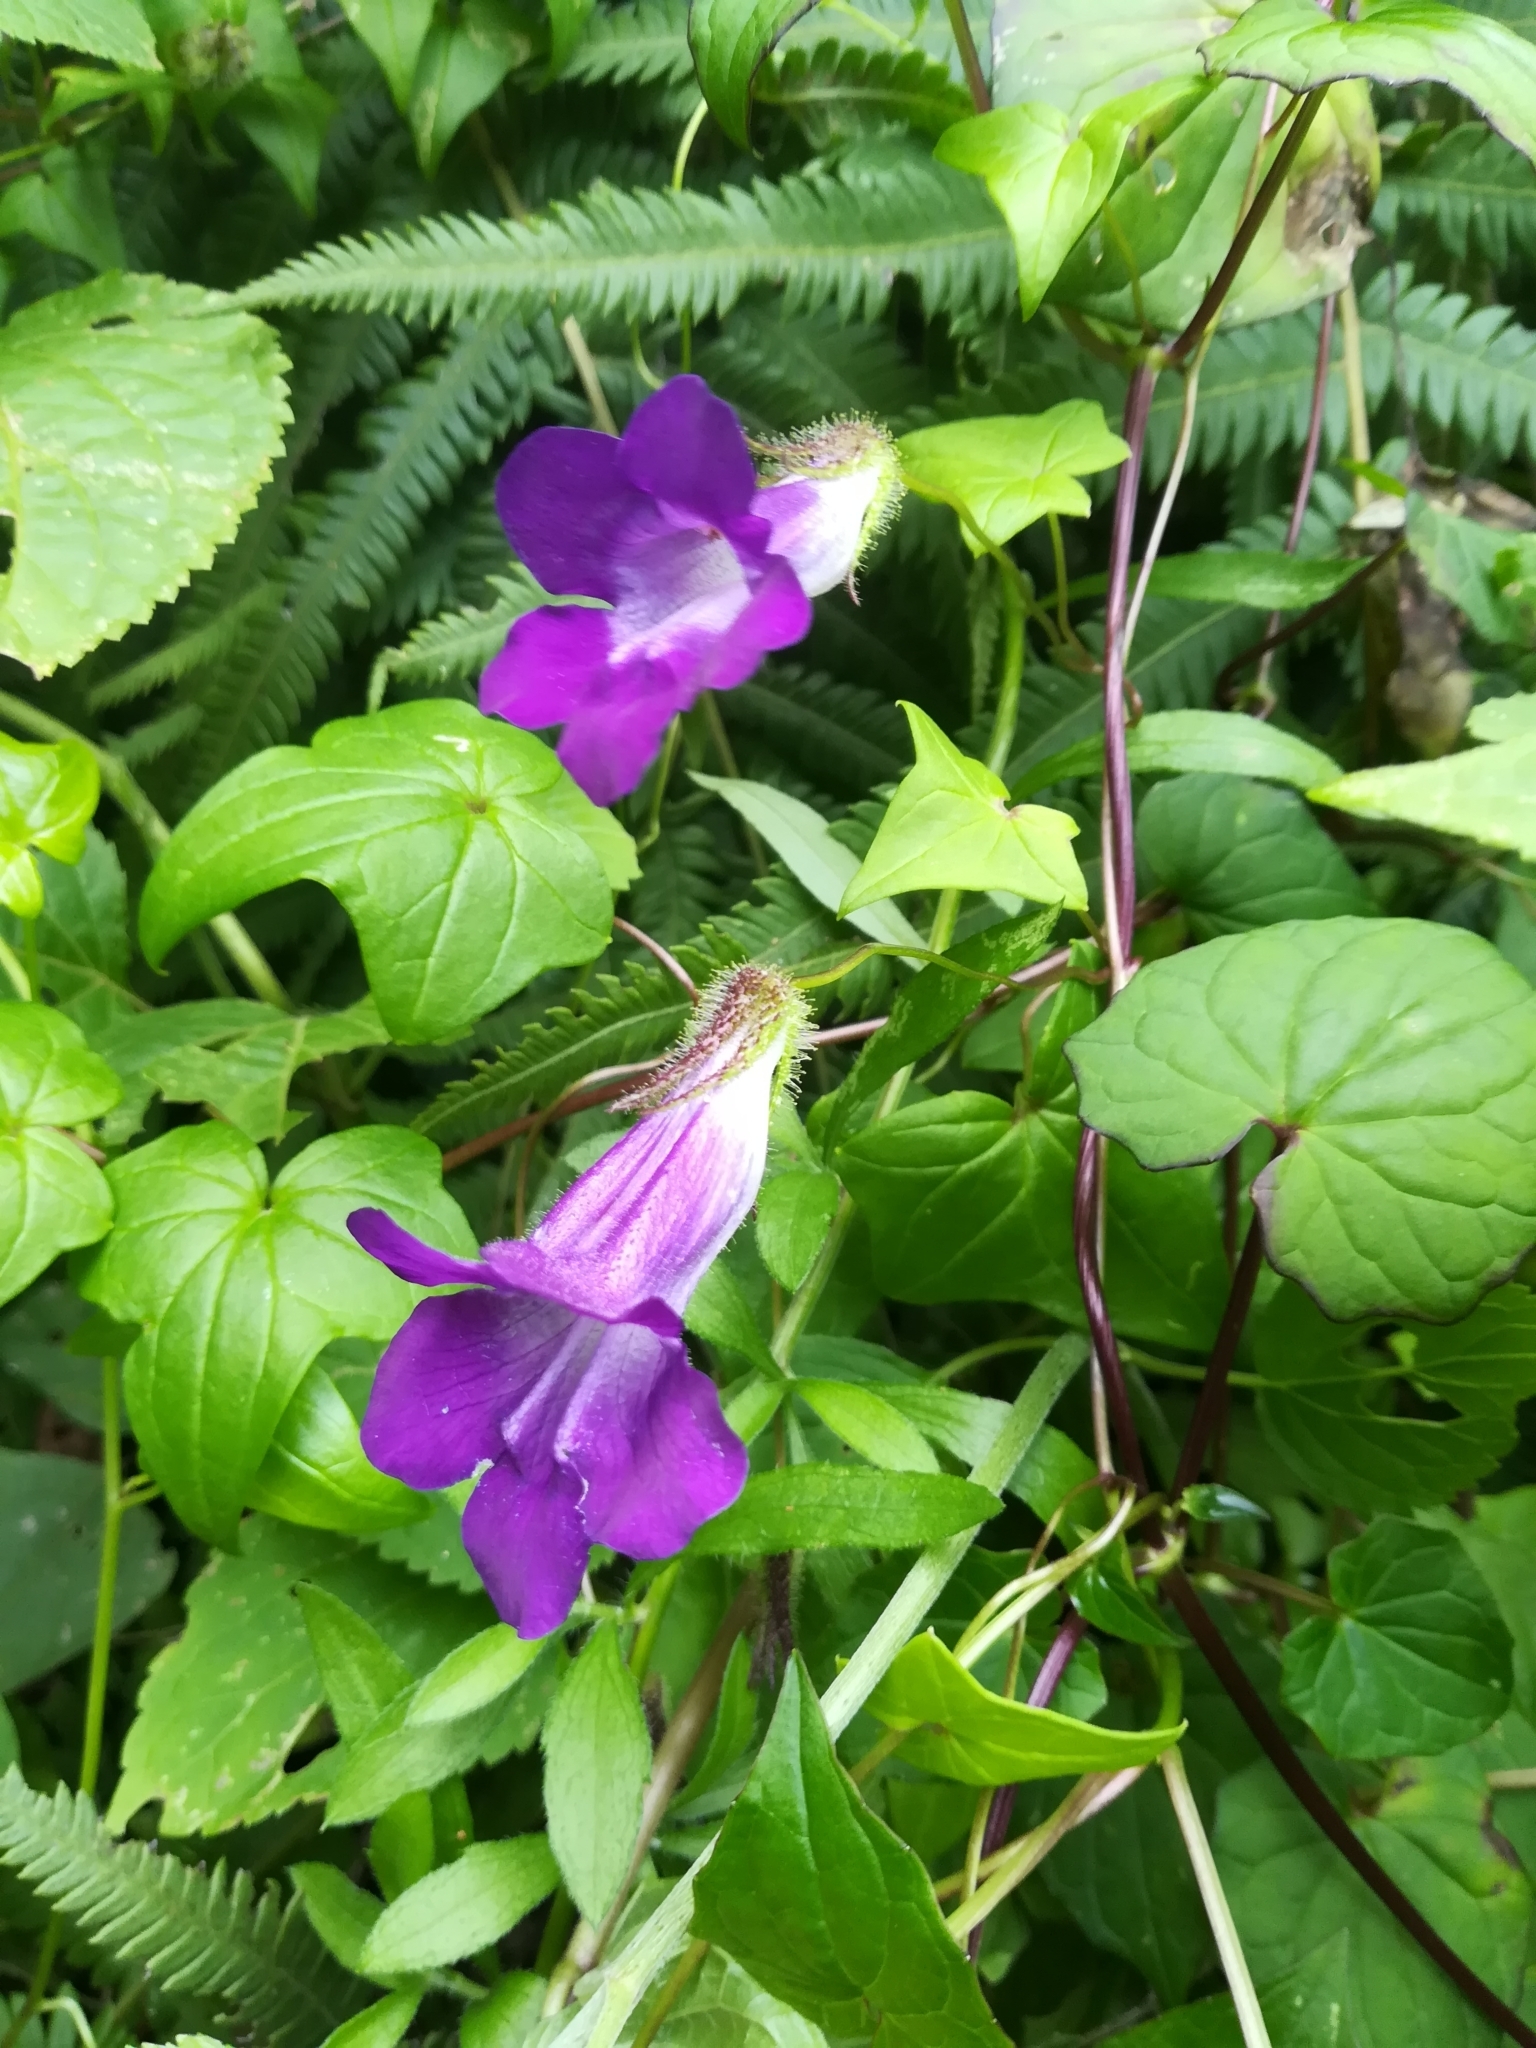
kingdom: Plantae
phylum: Tracheophyta
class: Magnoliopsida
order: Lamiales
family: Plantaginaceae
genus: Maurandya
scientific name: Maurandya barclayana
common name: Mexican viper
